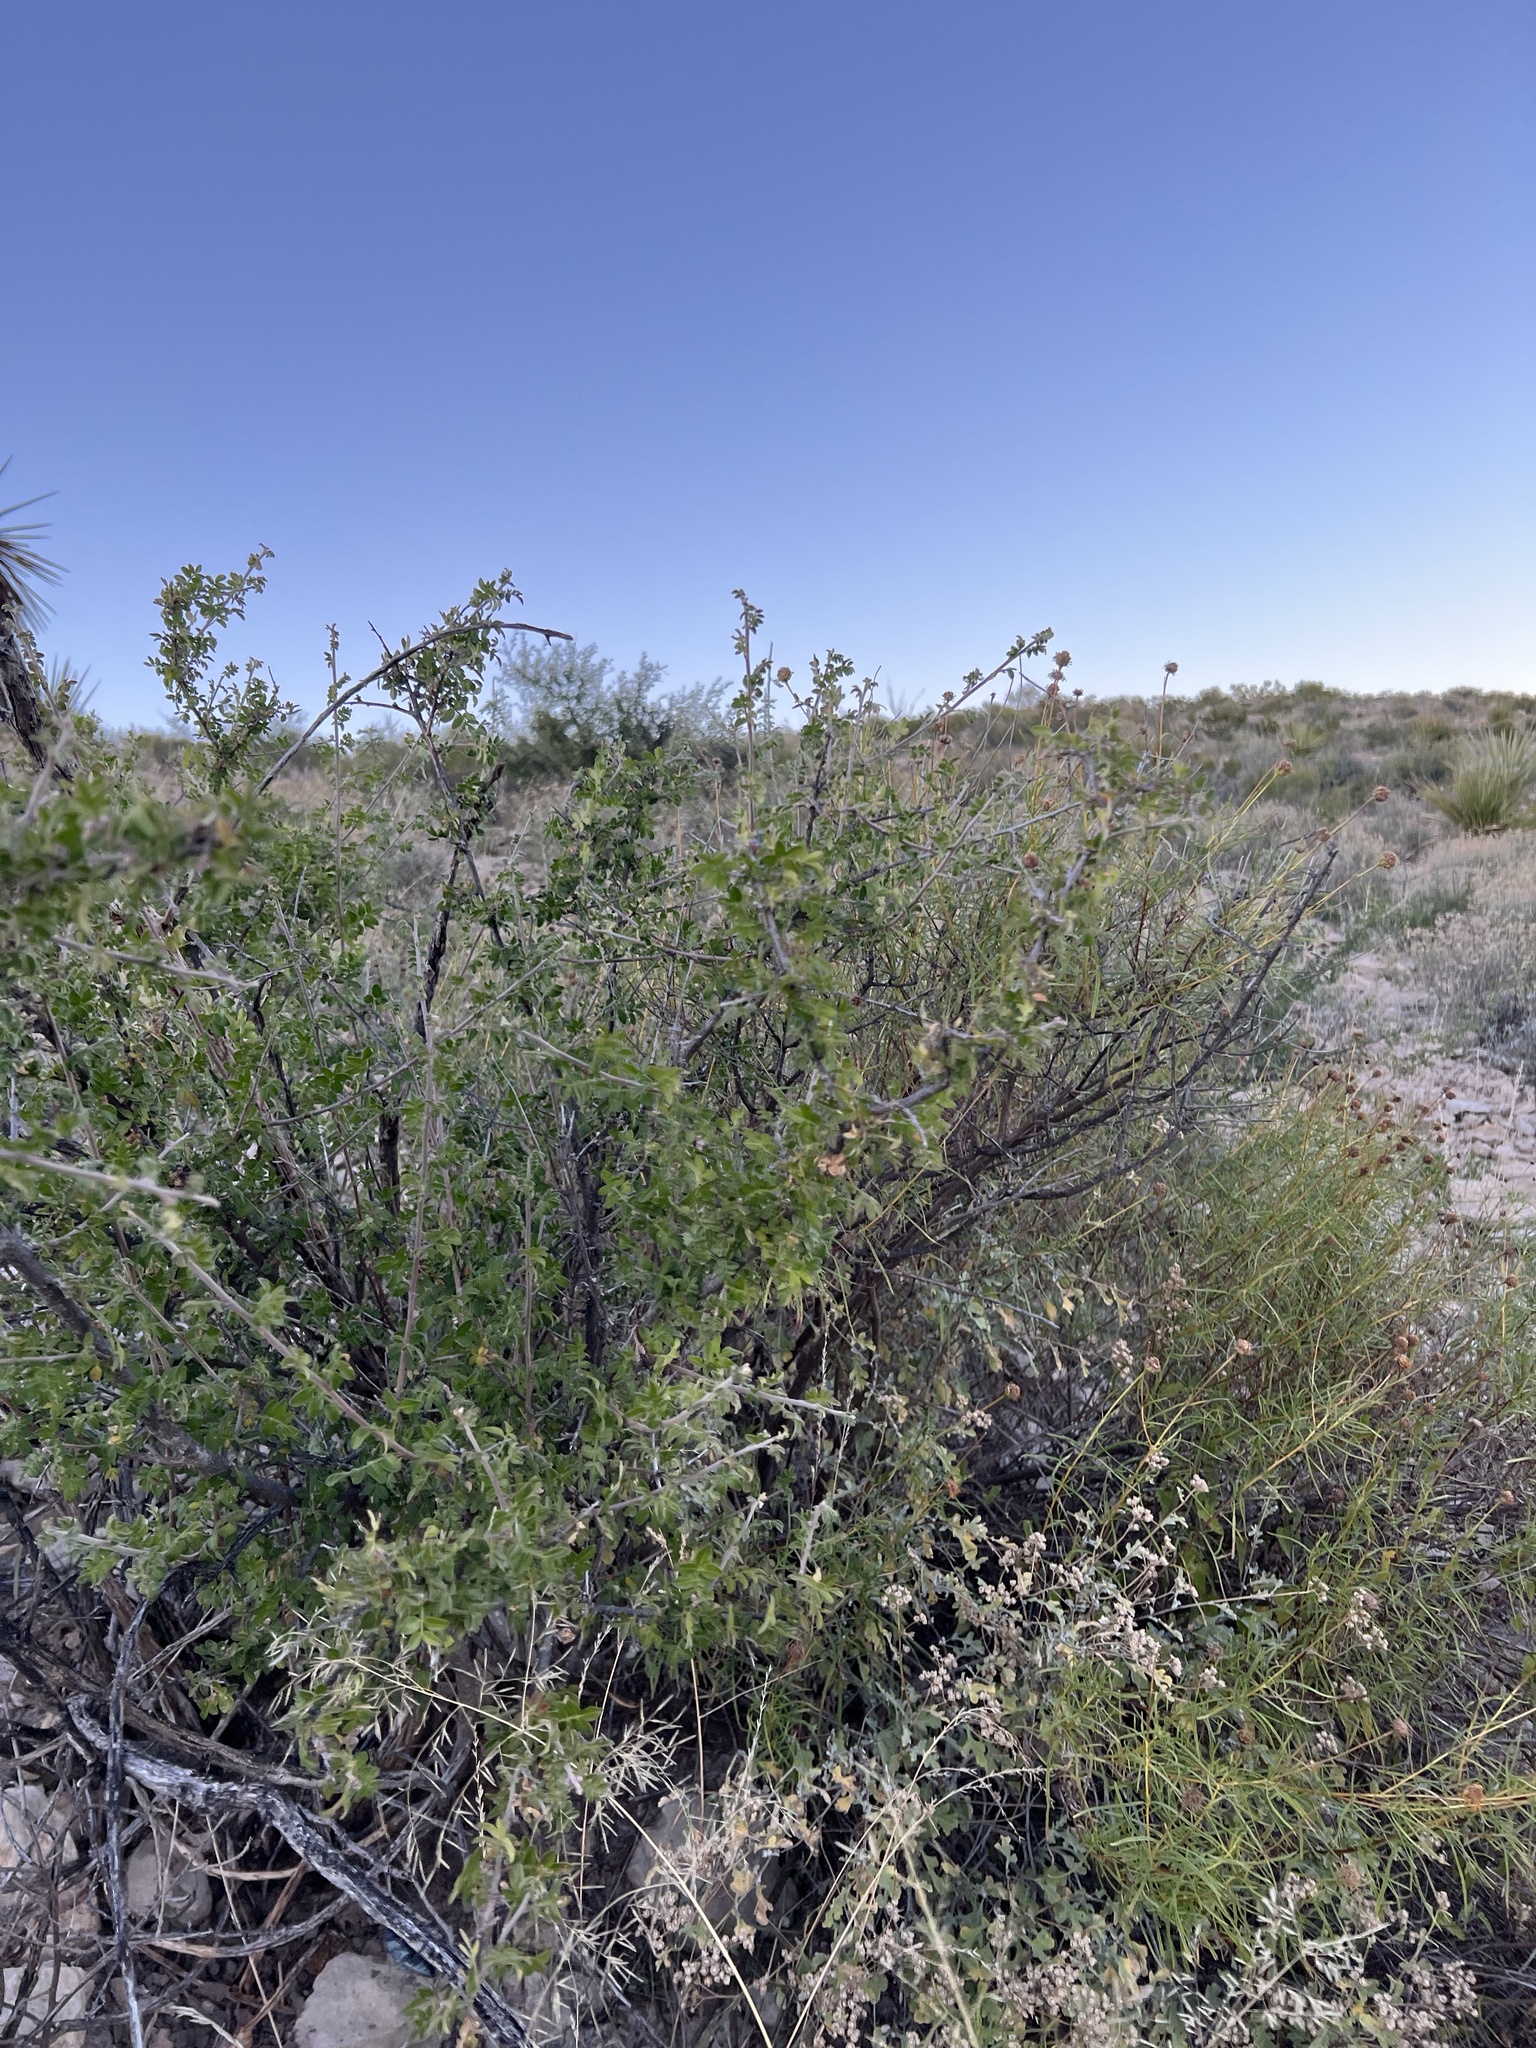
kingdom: Plantae
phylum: Tracheophyta
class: Magnoliopsida
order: Sapindales
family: Anacardiaceae
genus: Rhus
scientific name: Rhus microphylla
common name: Desert sumac
